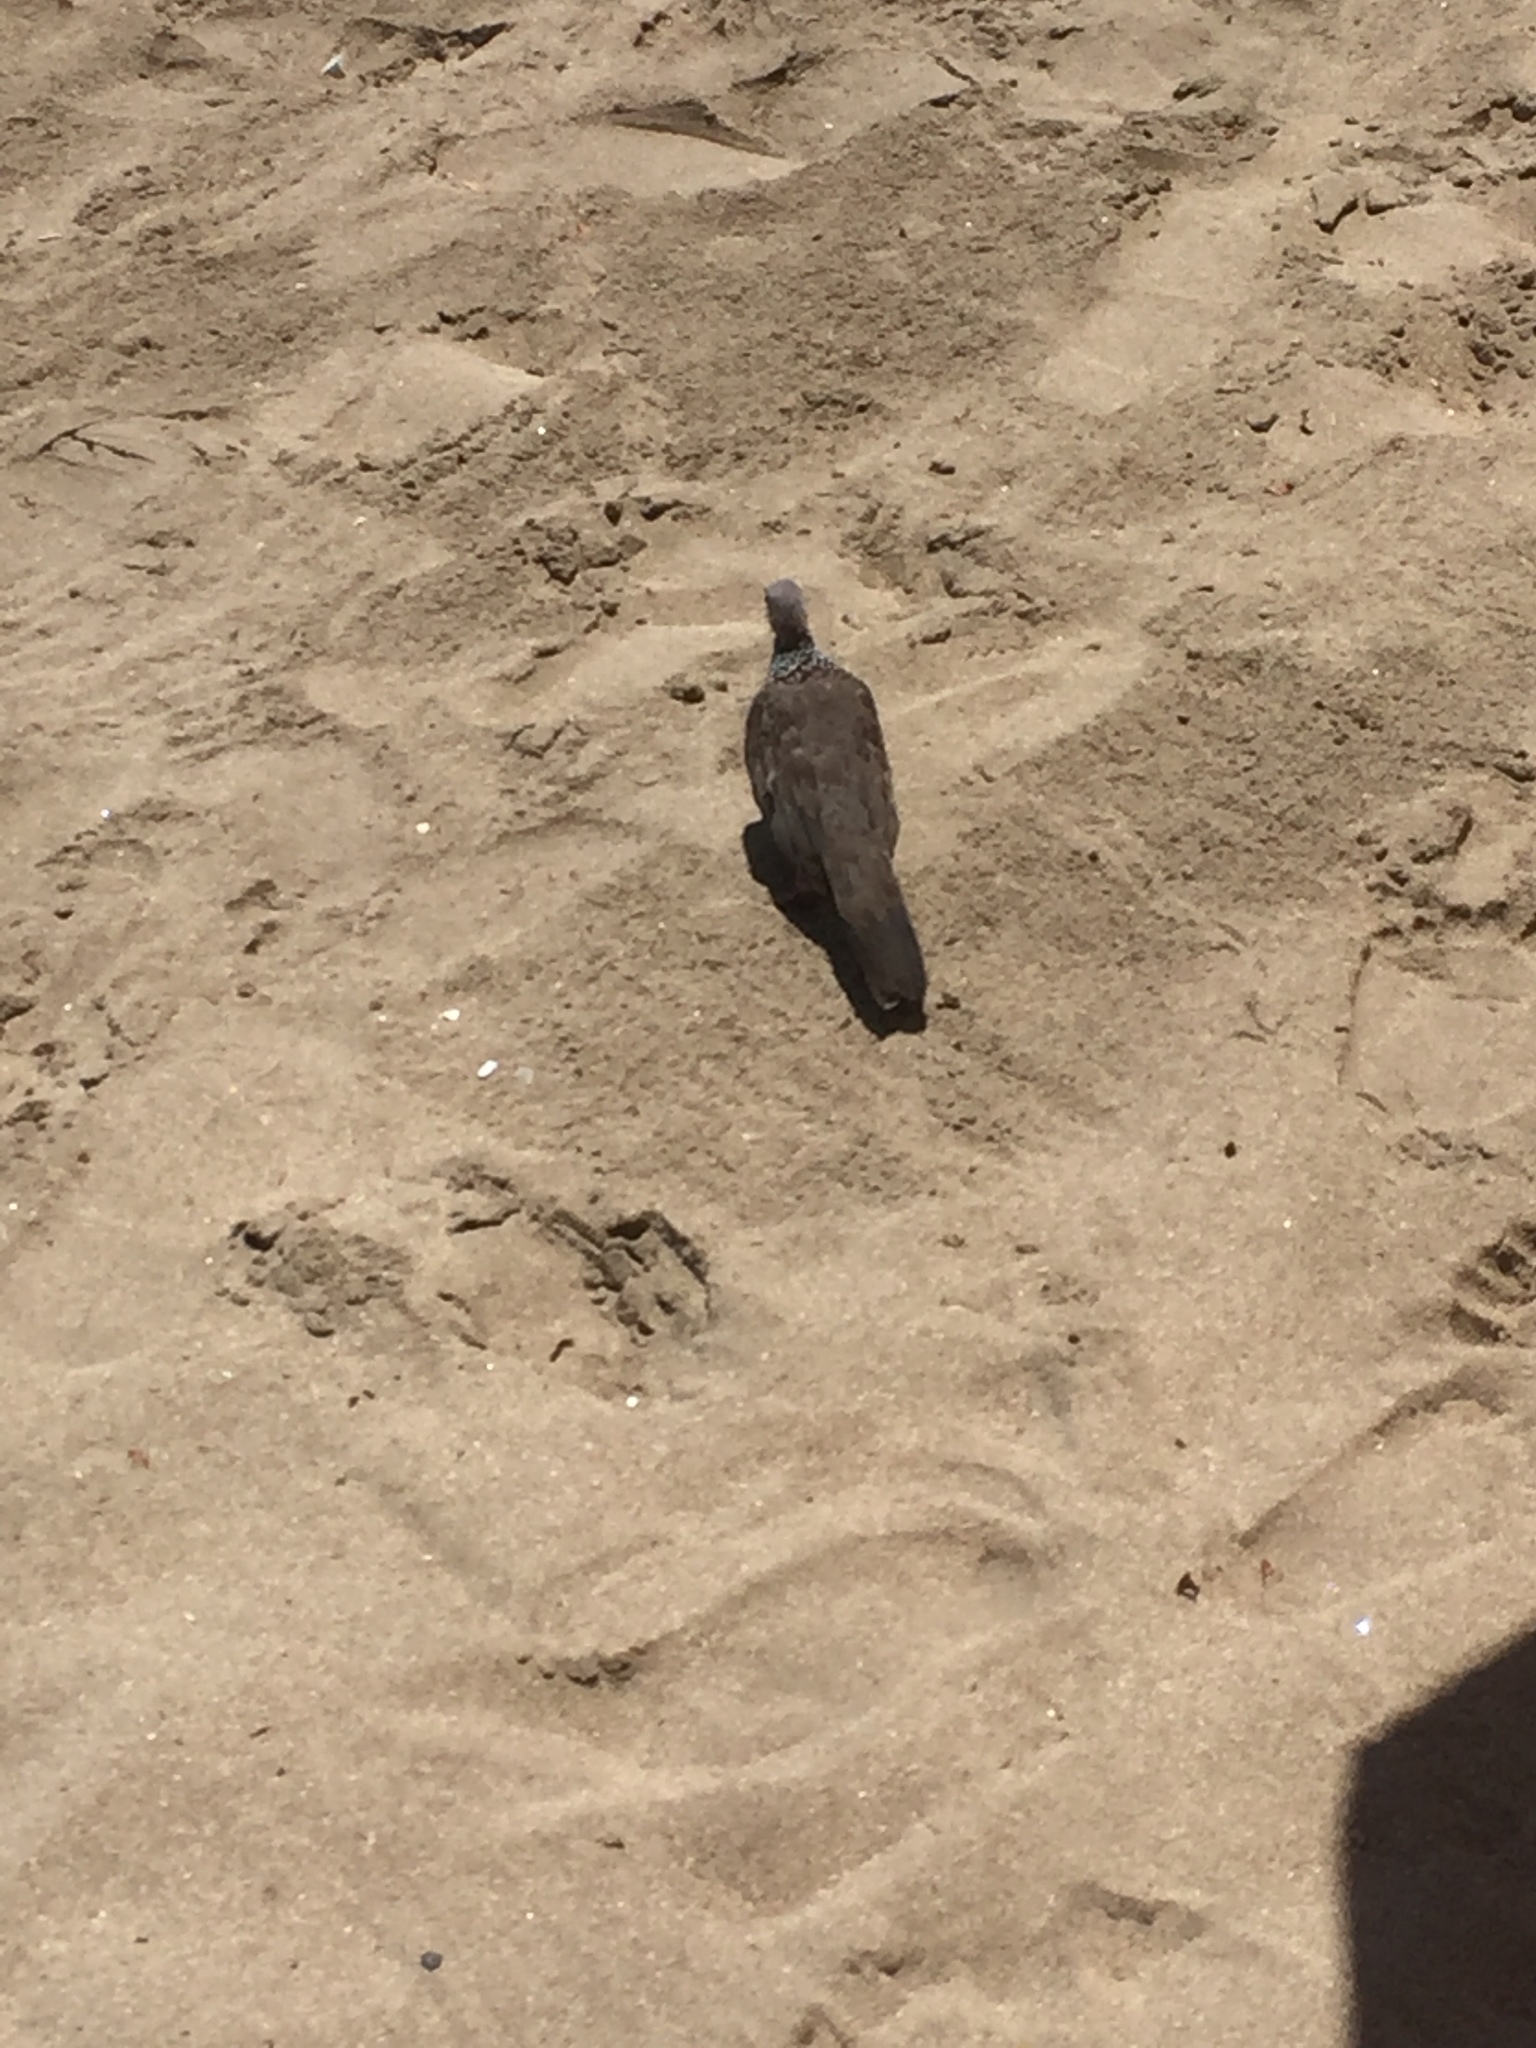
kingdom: Animalia
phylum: Chordata
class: Aves
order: Columbiformes
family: Columbidae
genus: Spilopelia
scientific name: Spilopelia chinensis
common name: Spotted dove
